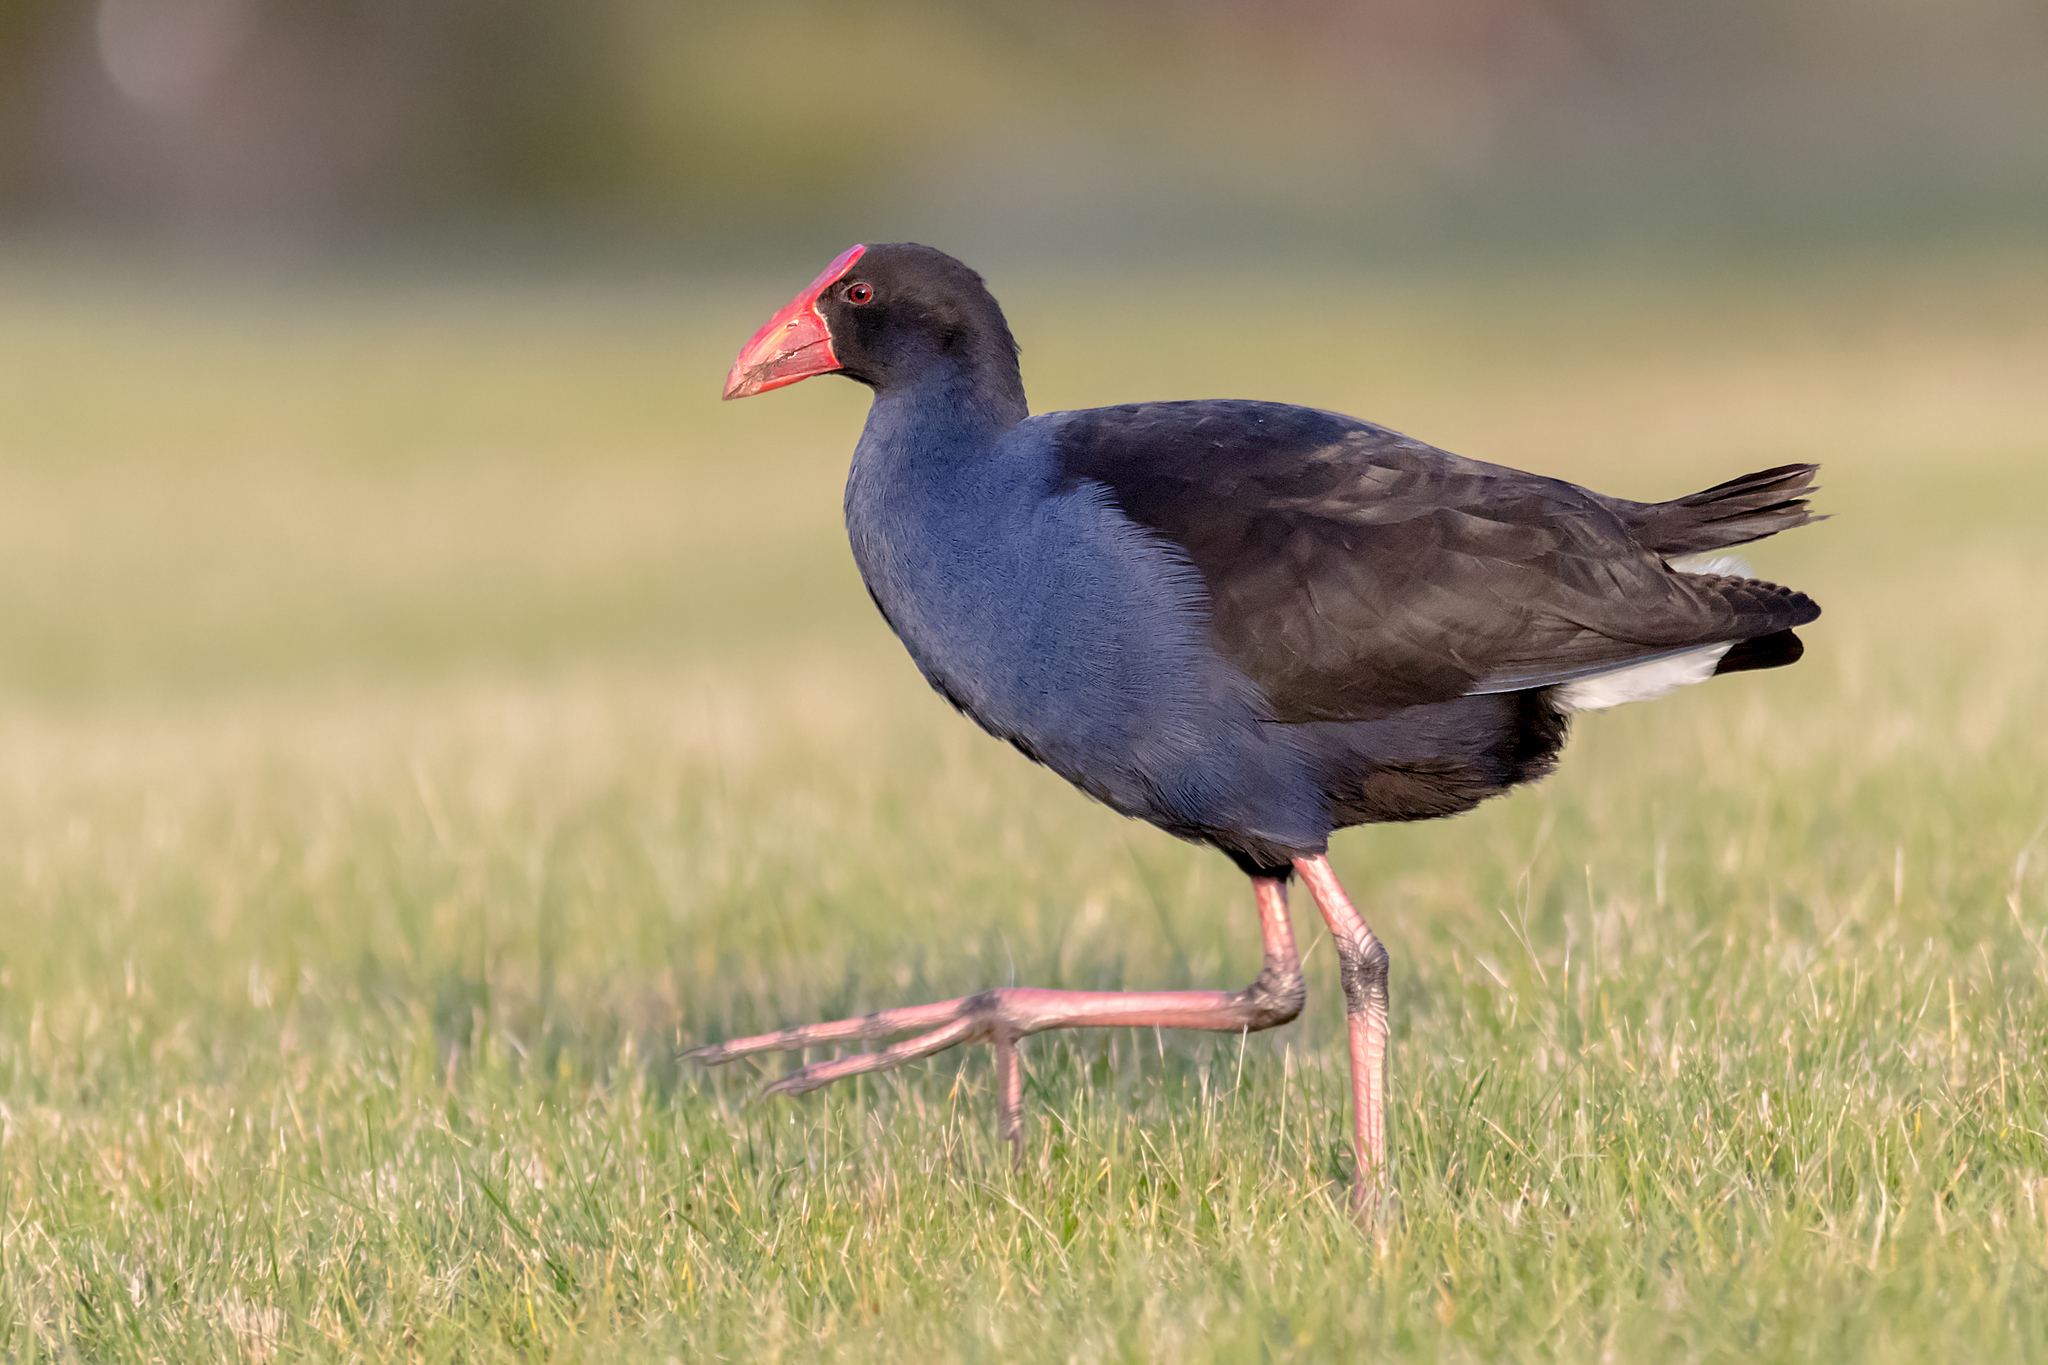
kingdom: Animalia
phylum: Chordata
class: Aves
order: Gruiformes
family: Rallidae
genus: Porphyrio
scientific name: Porphyrio melanotus
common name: Australasian swamphen
